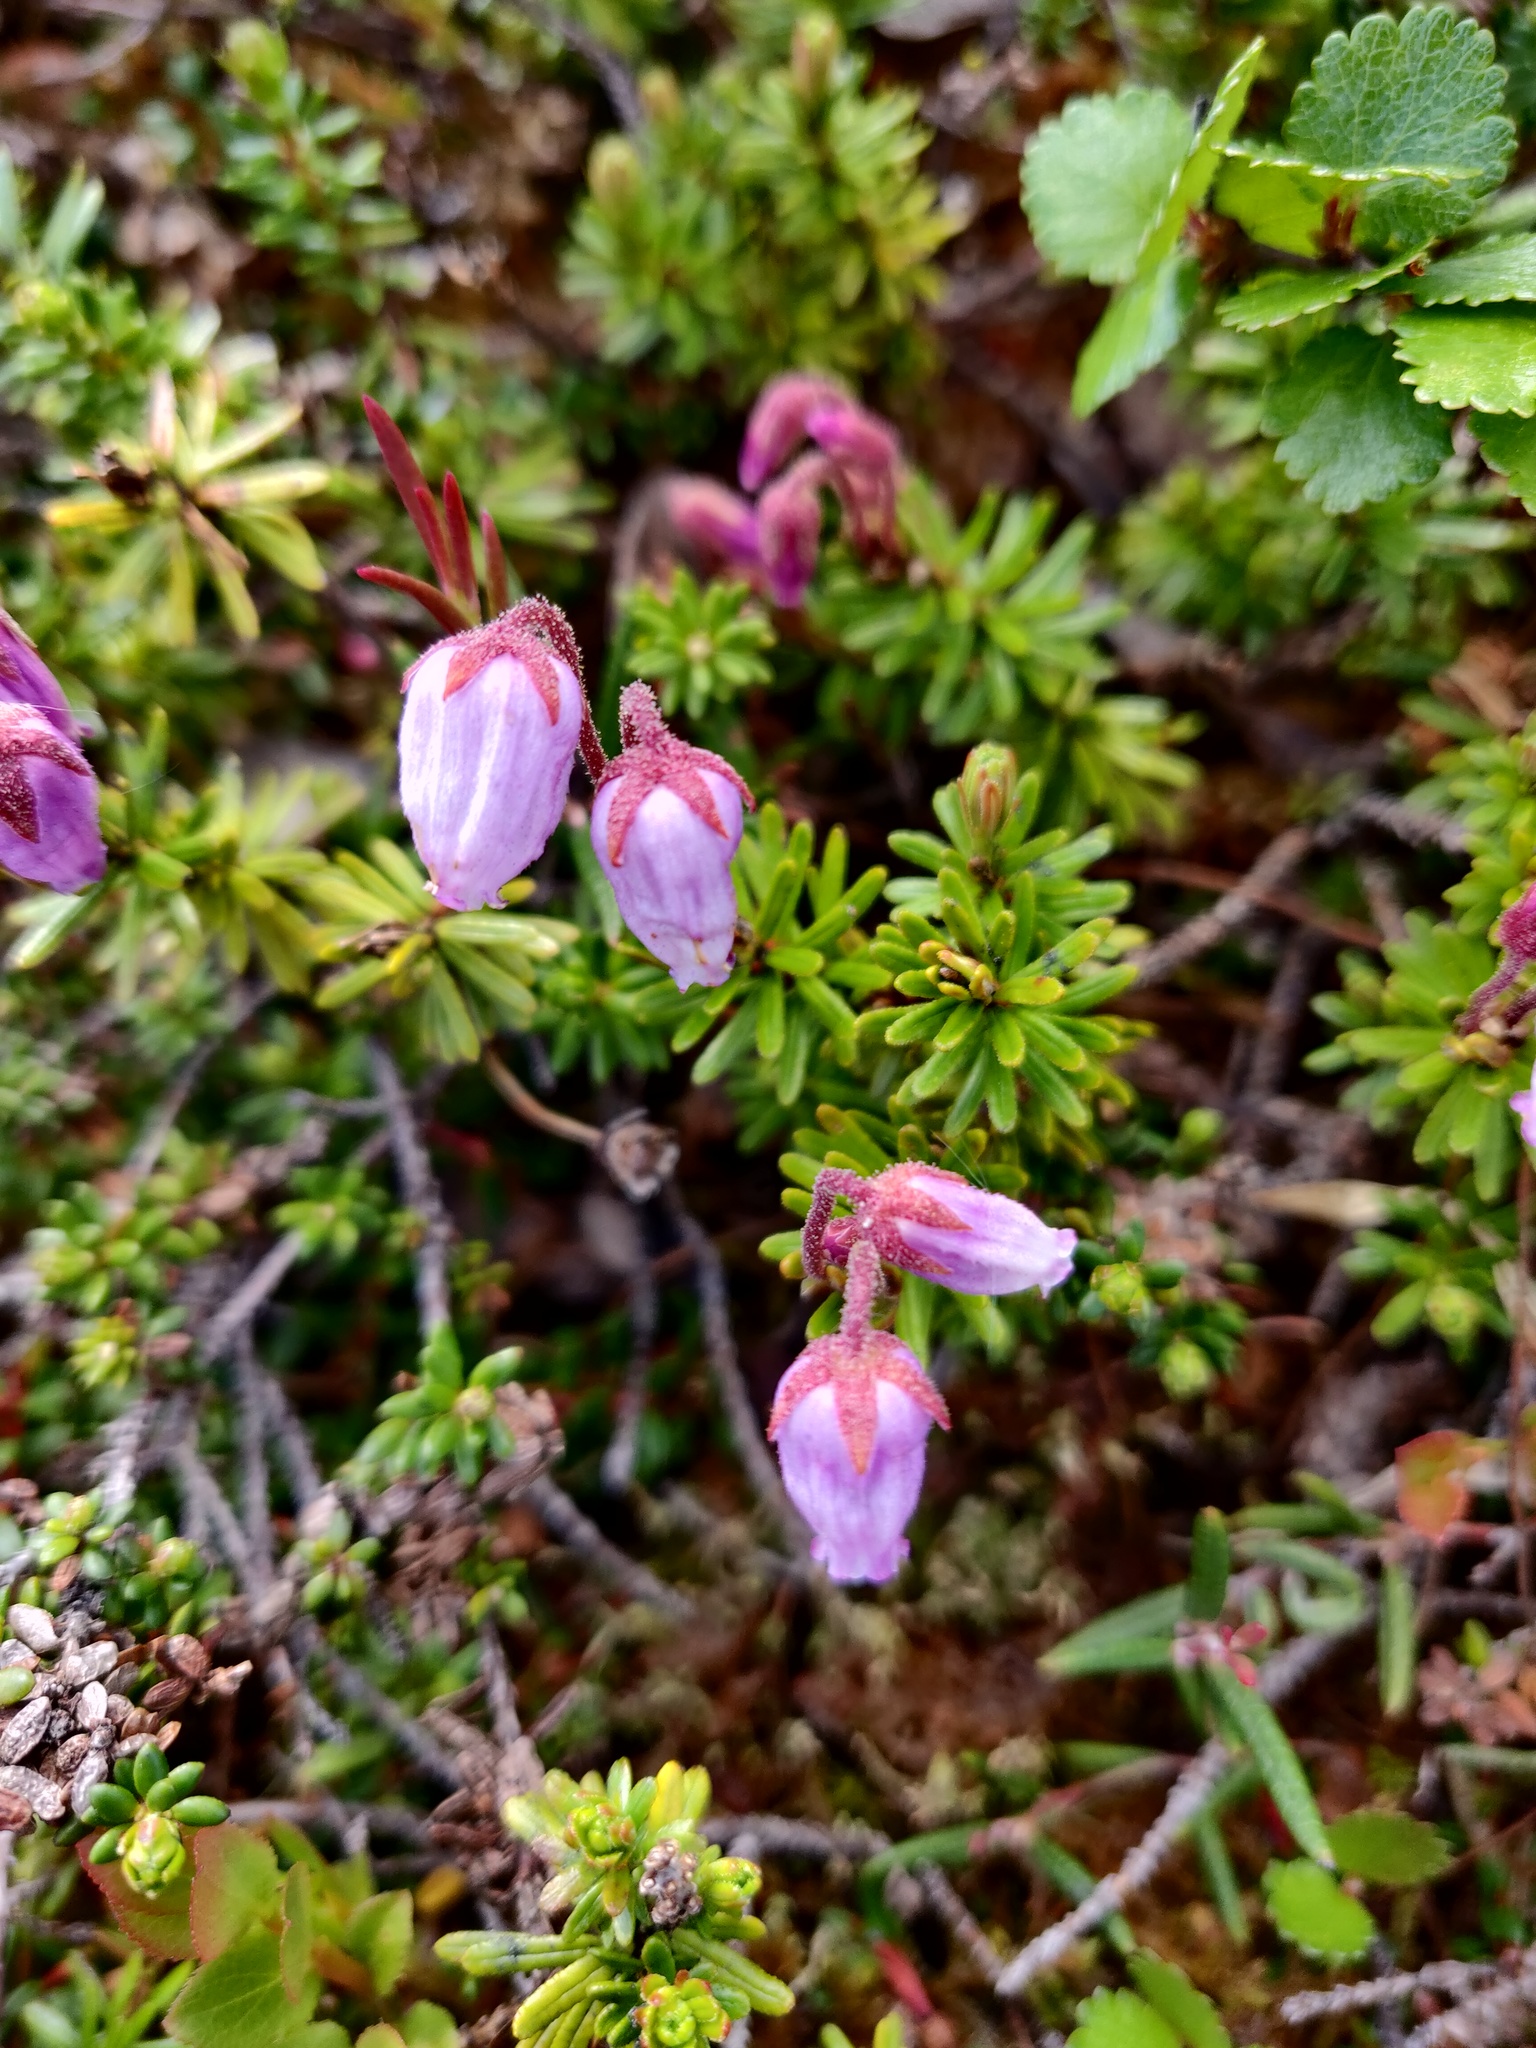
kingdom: Plantae
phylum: Tracheophyta
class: Magnoliopsida
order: Ericales
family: Ericaceae
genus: Phyllodoce
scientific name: Phyllodoce caerulea
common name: Blue heath
